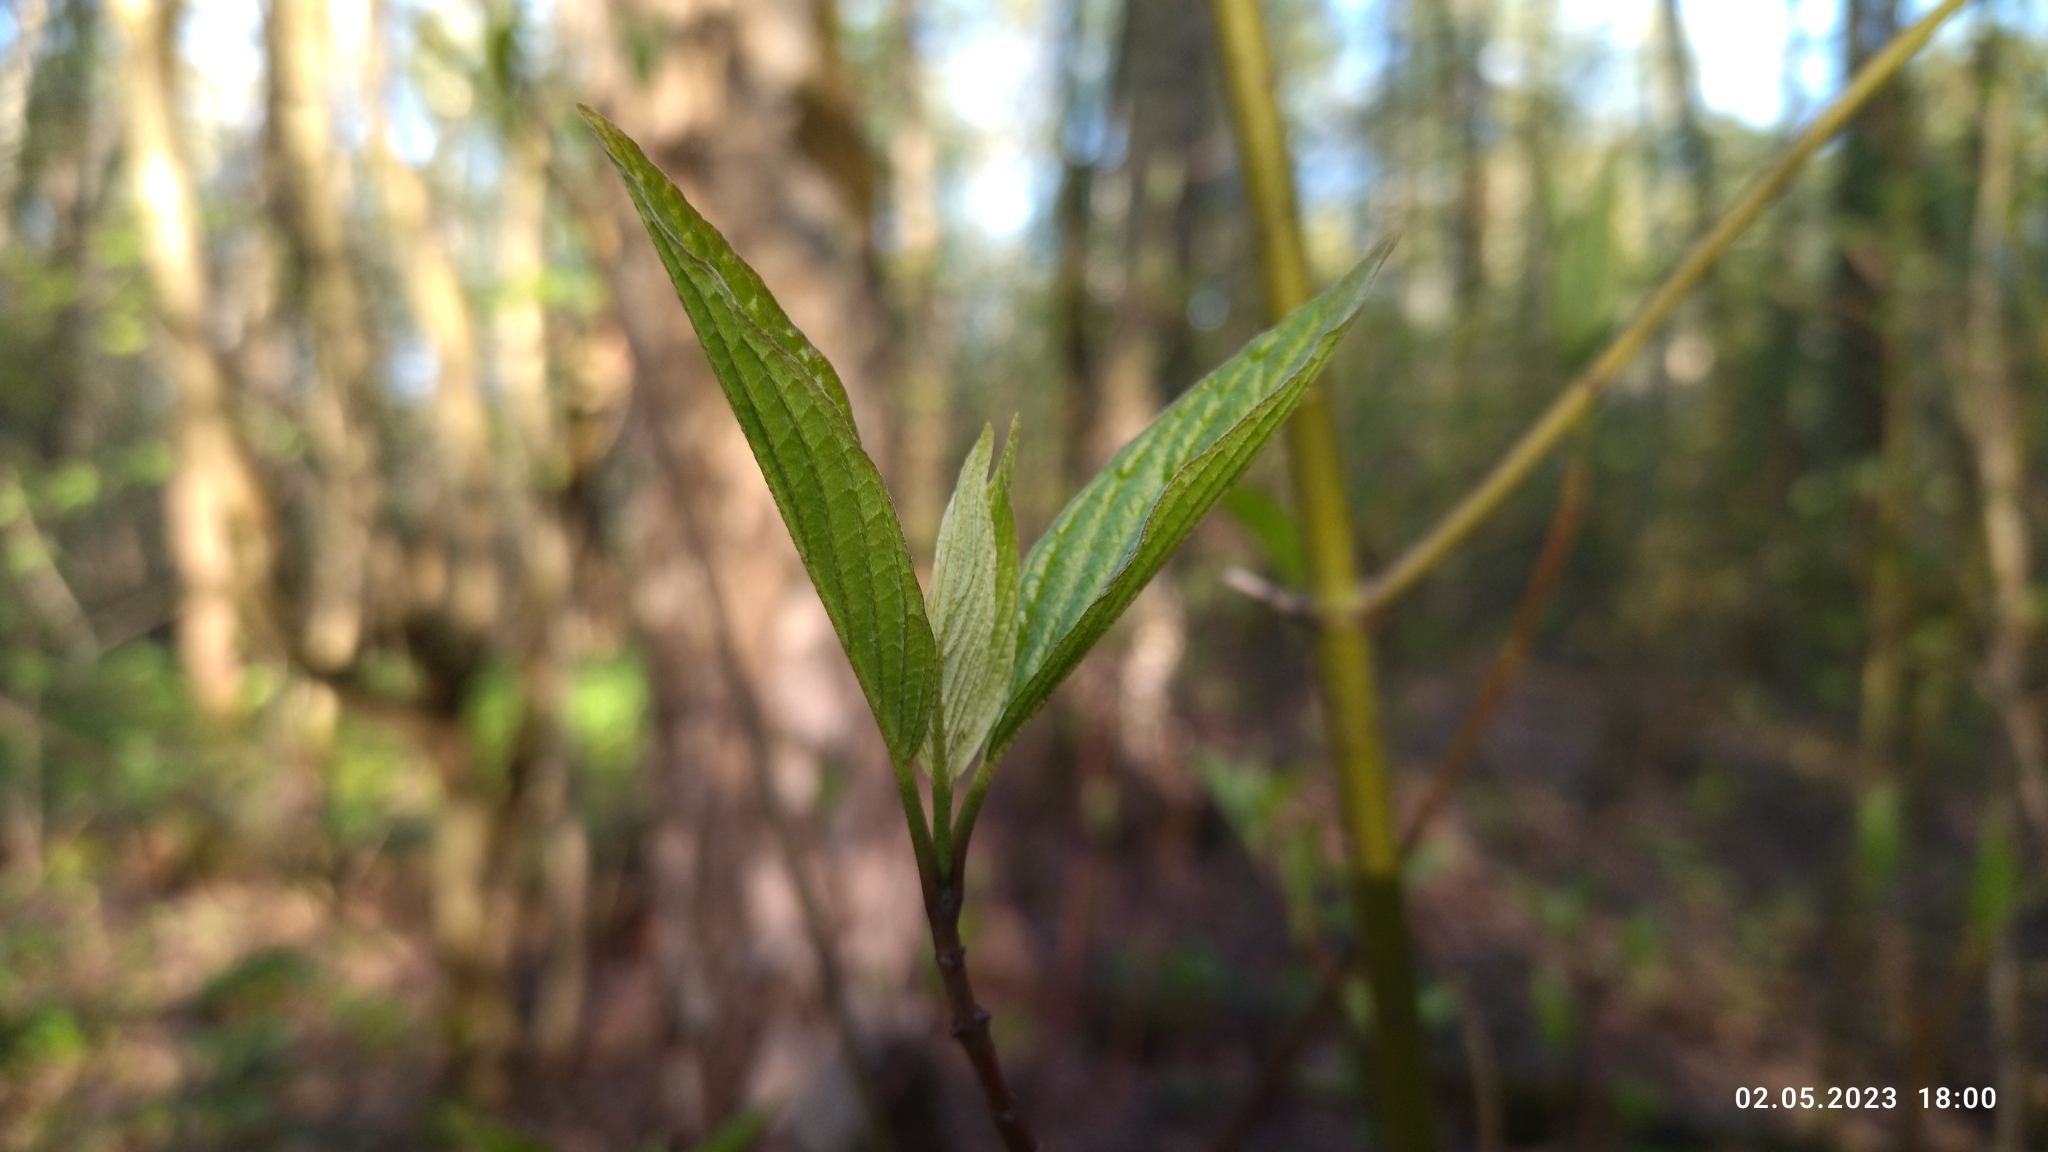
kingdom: Plantae
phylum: Tracheophyta
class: Magnoliopsida
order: Cornales
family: Cornaceae
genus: Cornus
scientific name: Cornus sericea
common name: Red-osier dogwood
